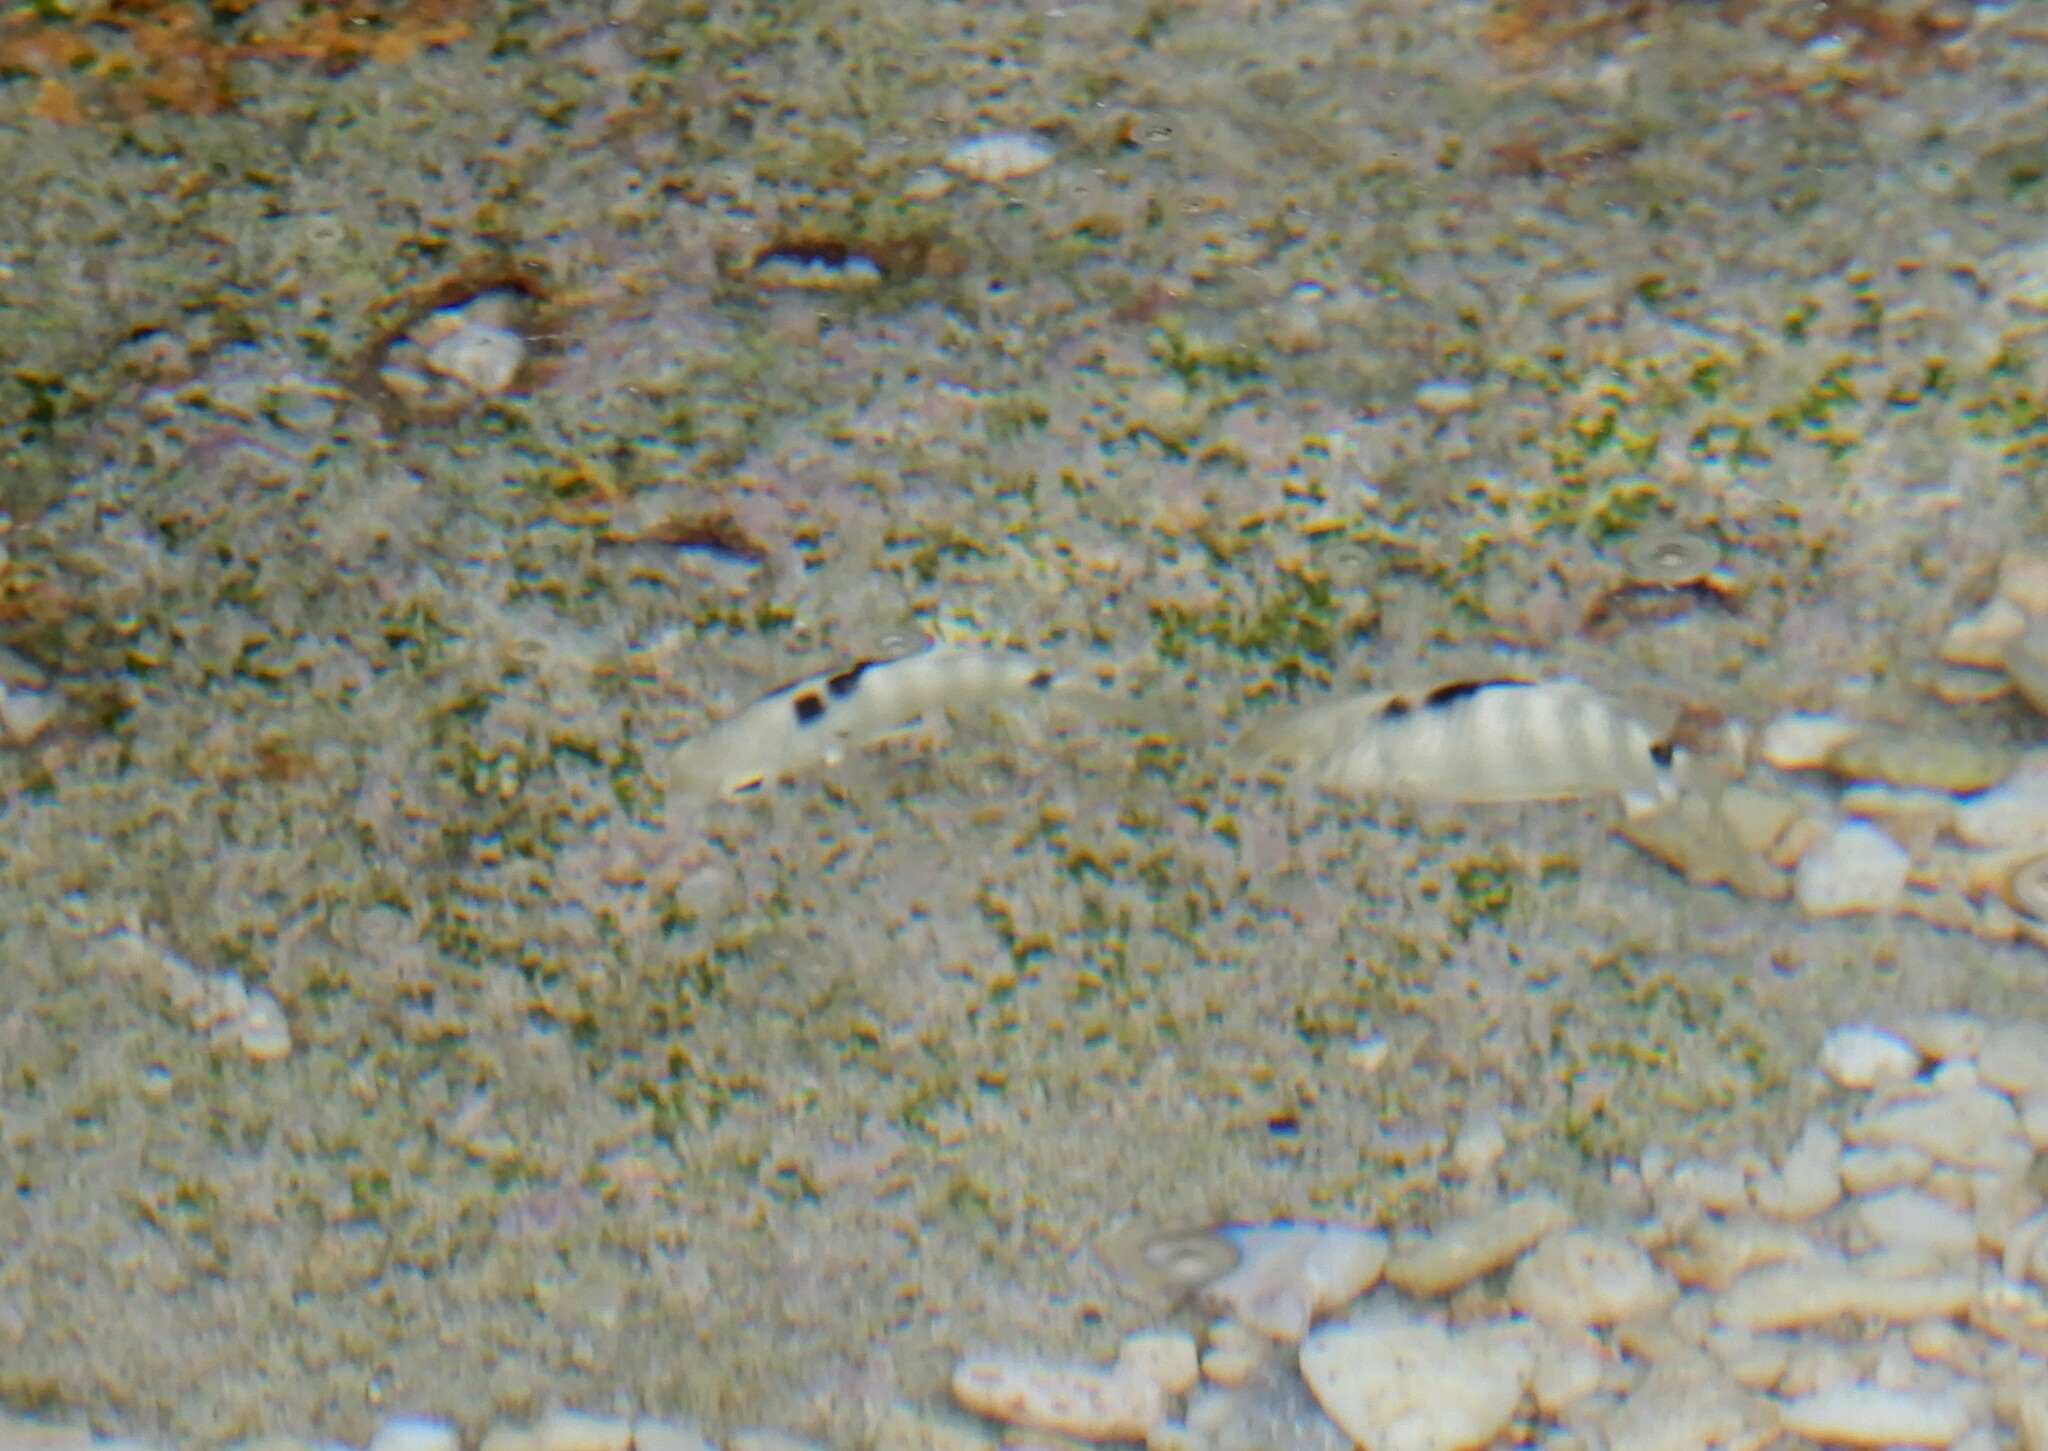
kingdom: Animalia
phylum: Chordata
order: Perciformes
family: Pomacentridae
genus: Abudefduf
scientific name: Abudefduf septemfasciatus
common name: Banded sergeant
